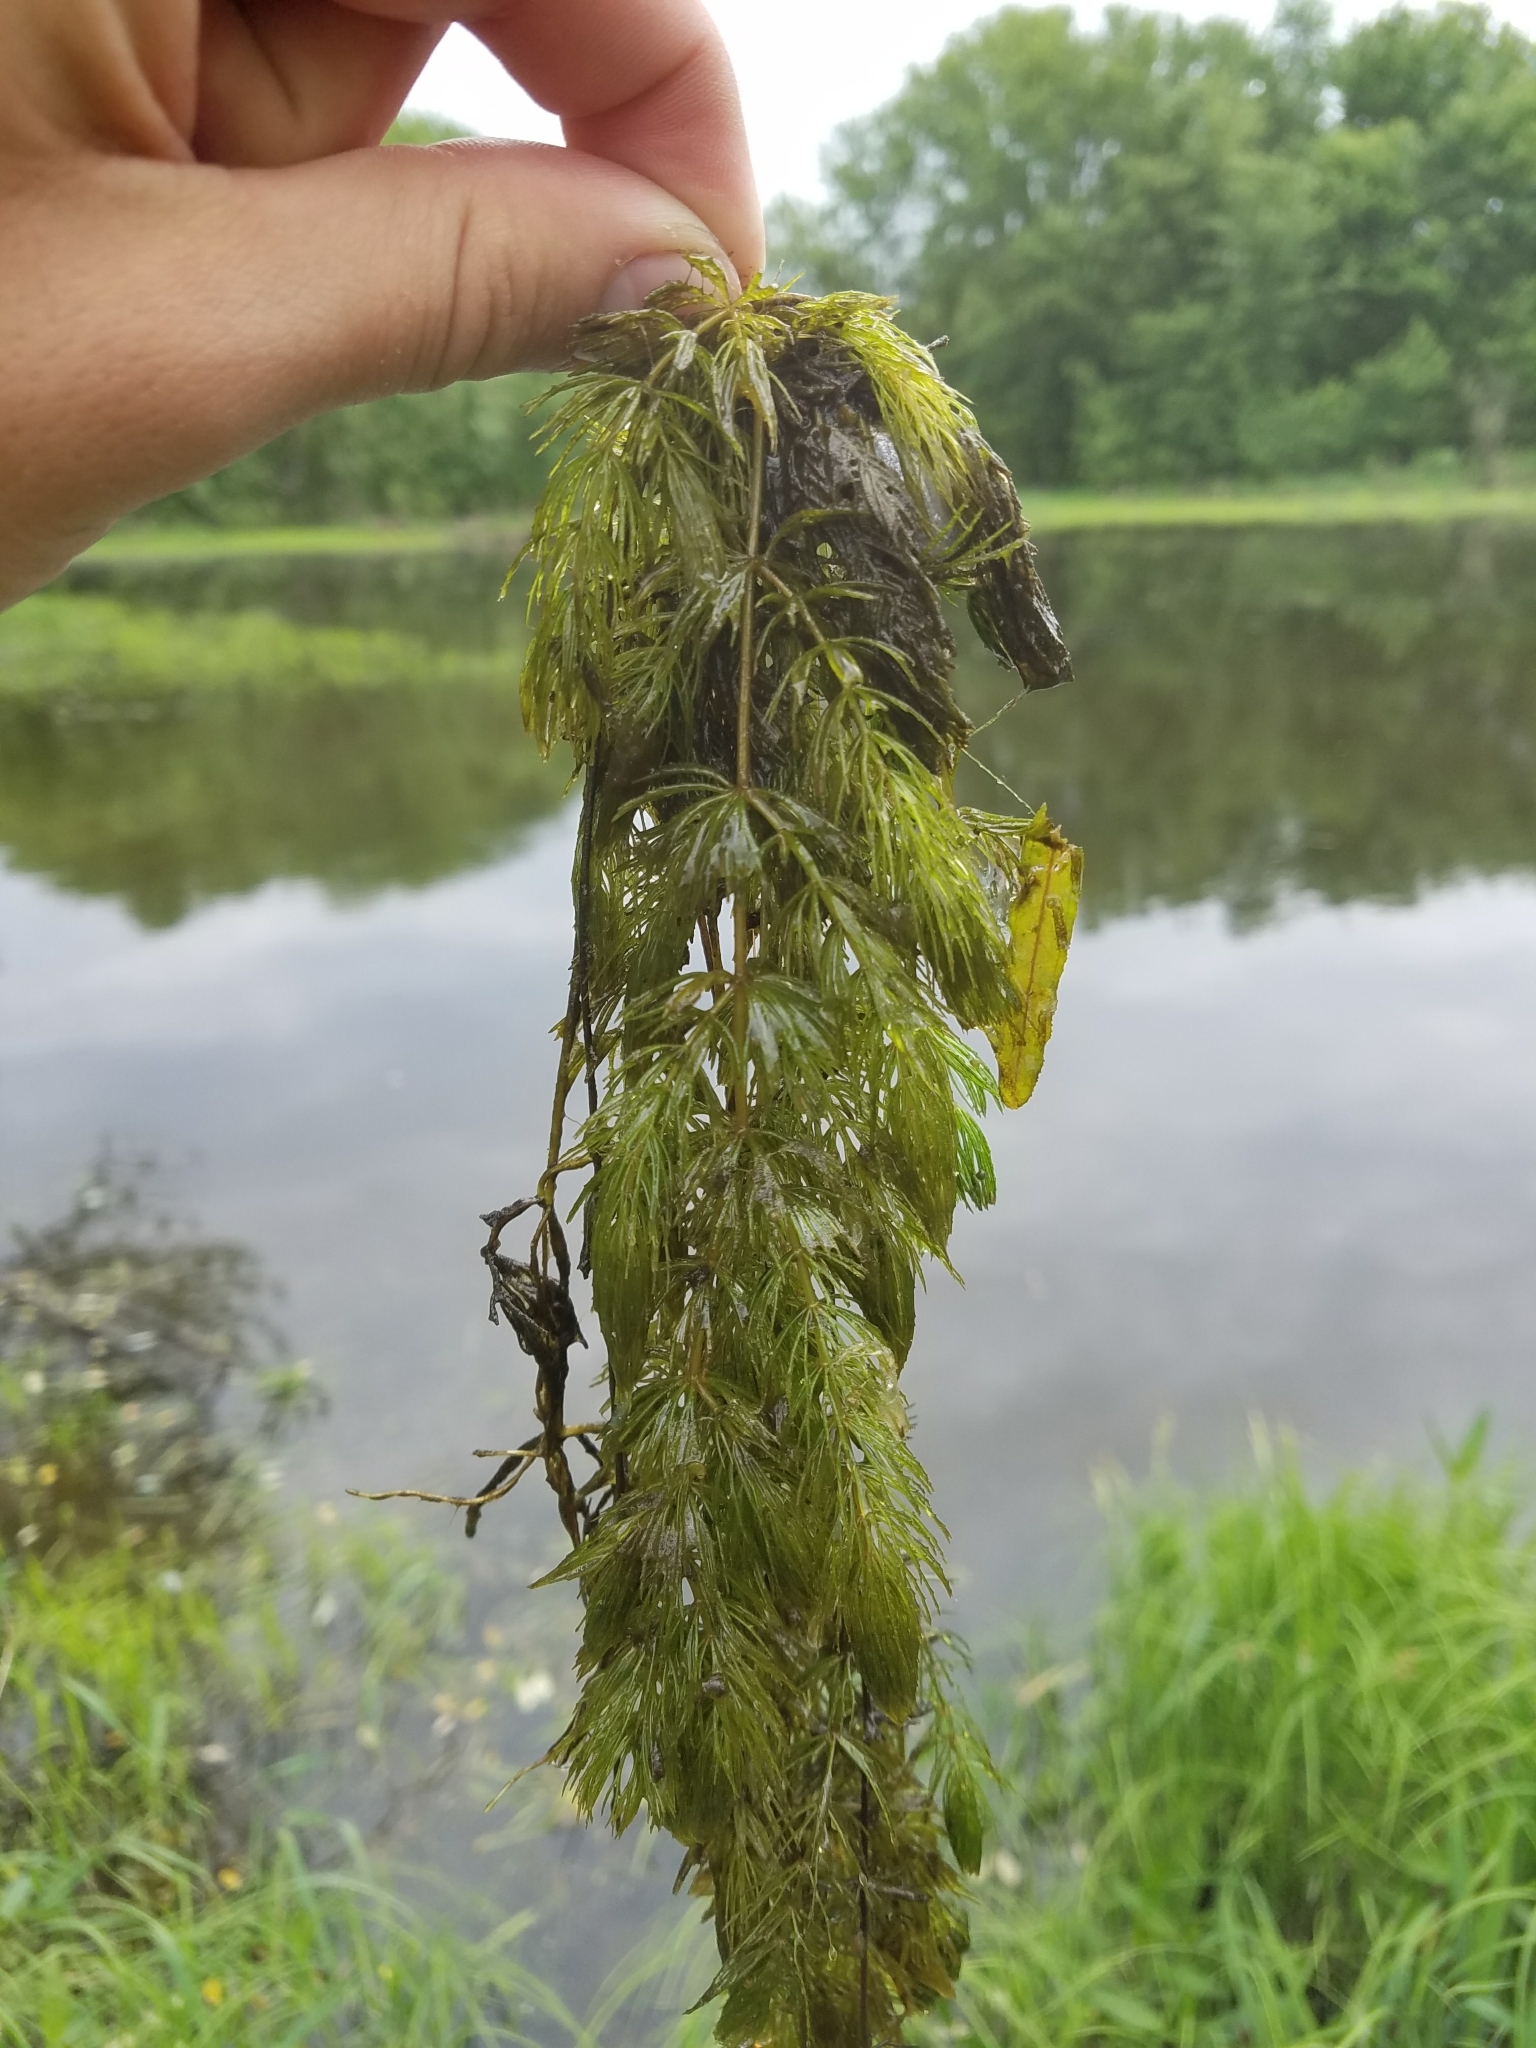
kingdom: Plantae
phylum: Tracheophyta
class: Magnoliopsida
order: Ceratophyllales
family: Ceratophyllaceae
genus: Ceratophyllum
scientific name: Ceratophyllum demersum
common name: Rigid hornwort
